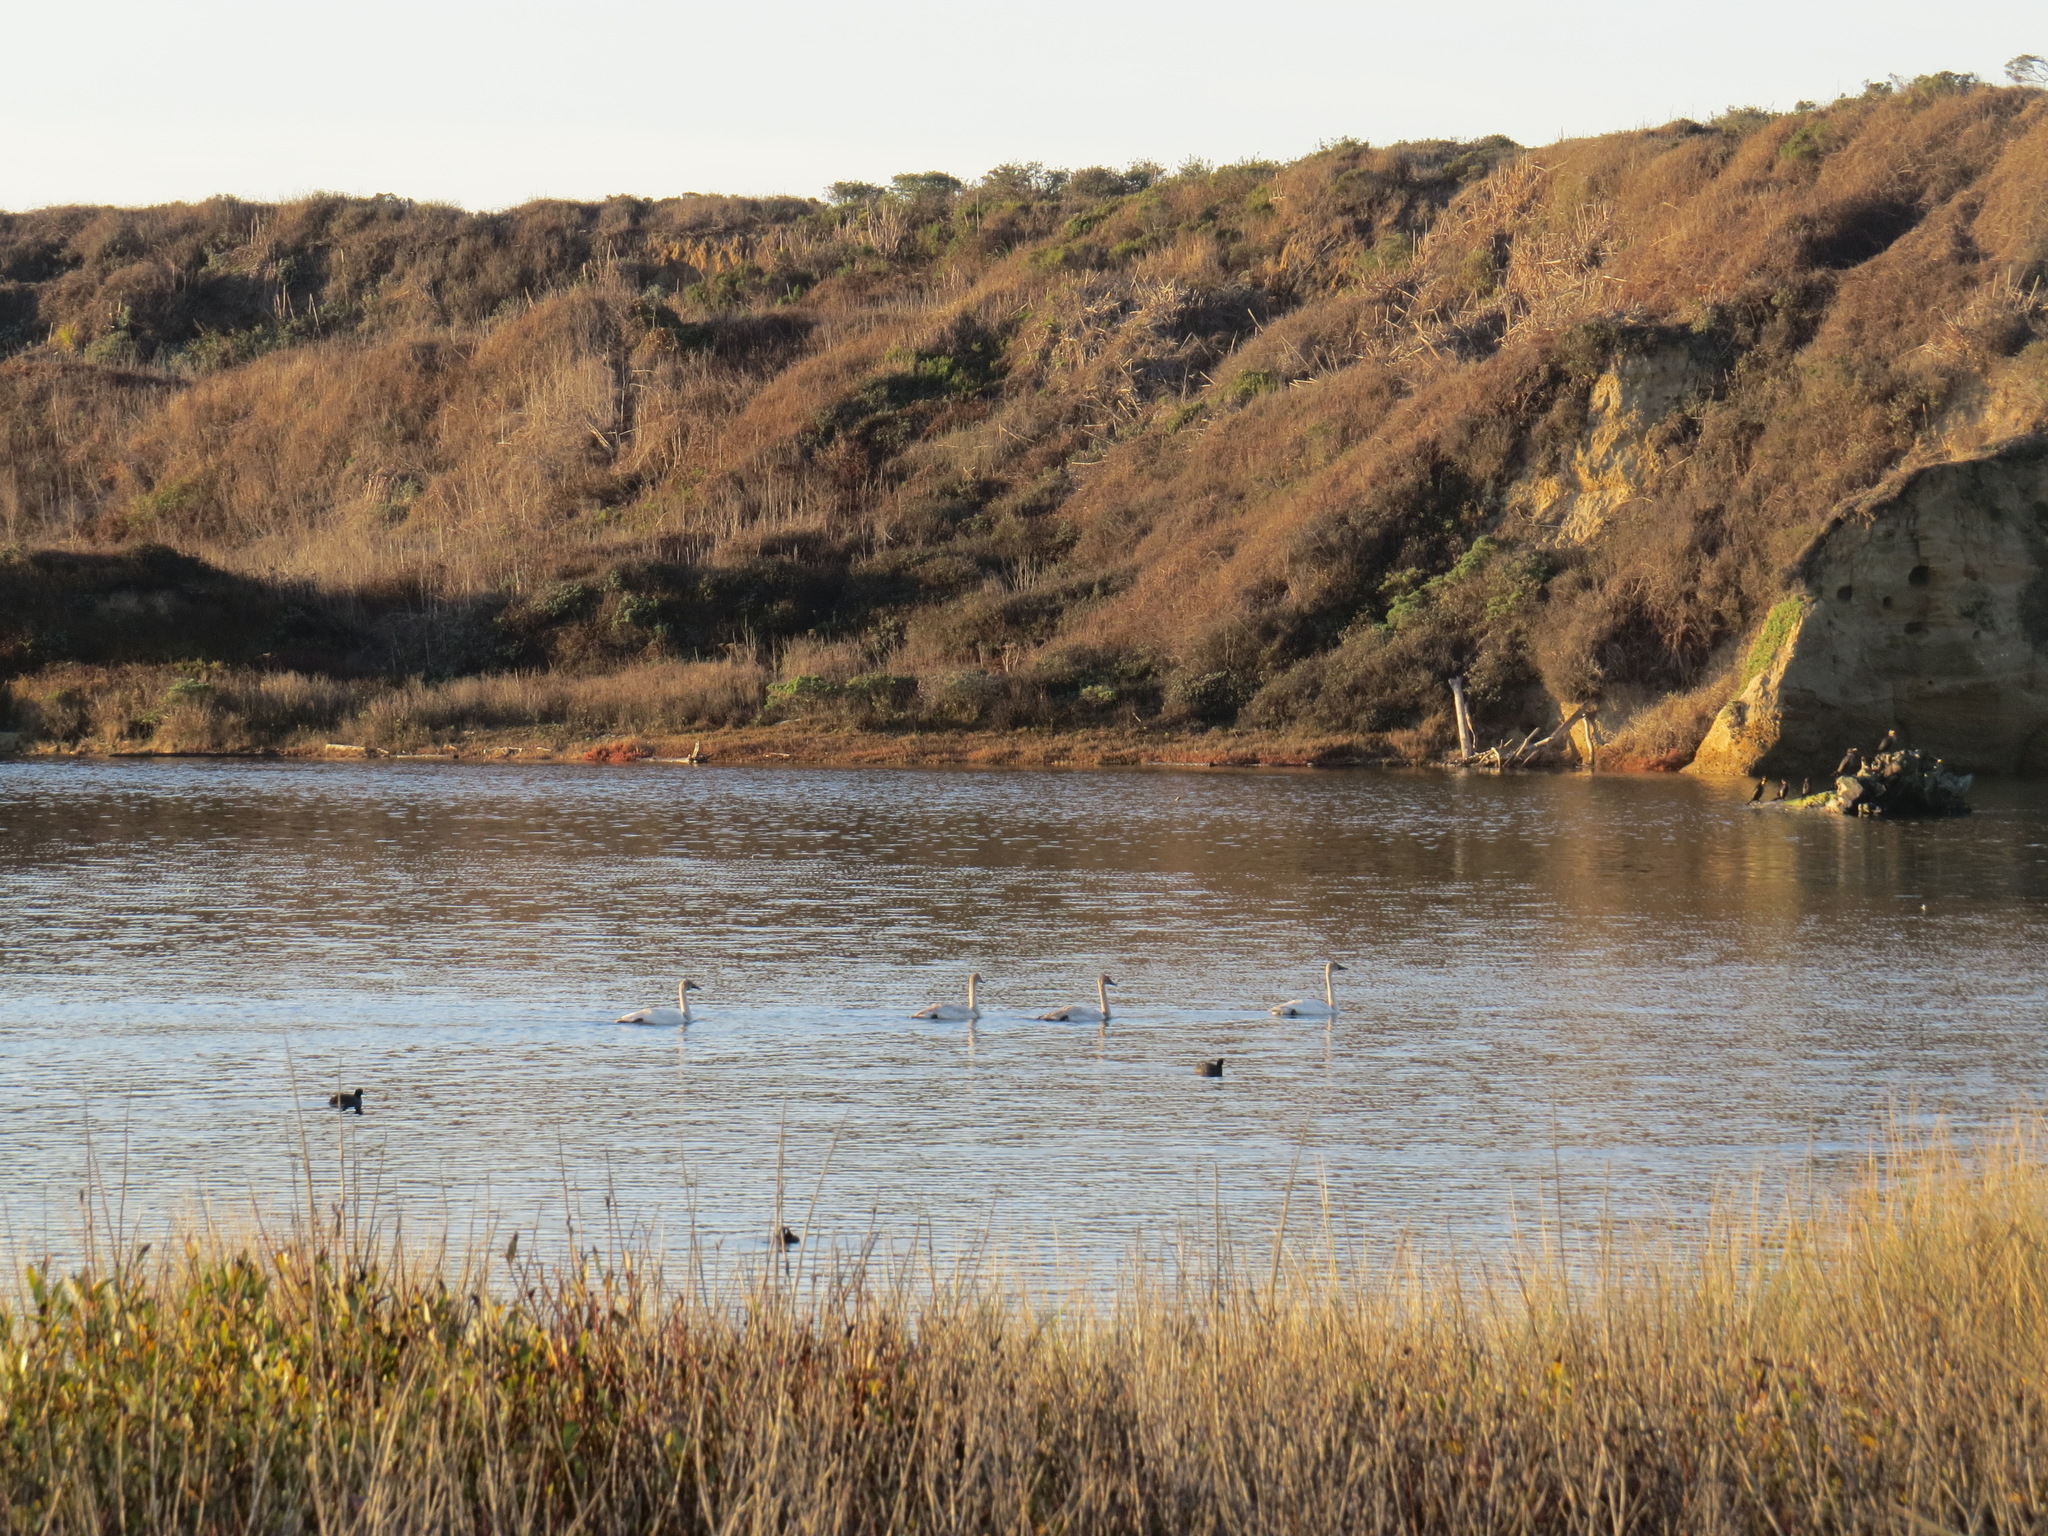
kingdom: Animalia
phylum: Chordata
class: Aves
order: Anseriformes
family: Anatidae
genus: Cygnus
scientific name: Cygnus columbianus
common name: Tundra swan
